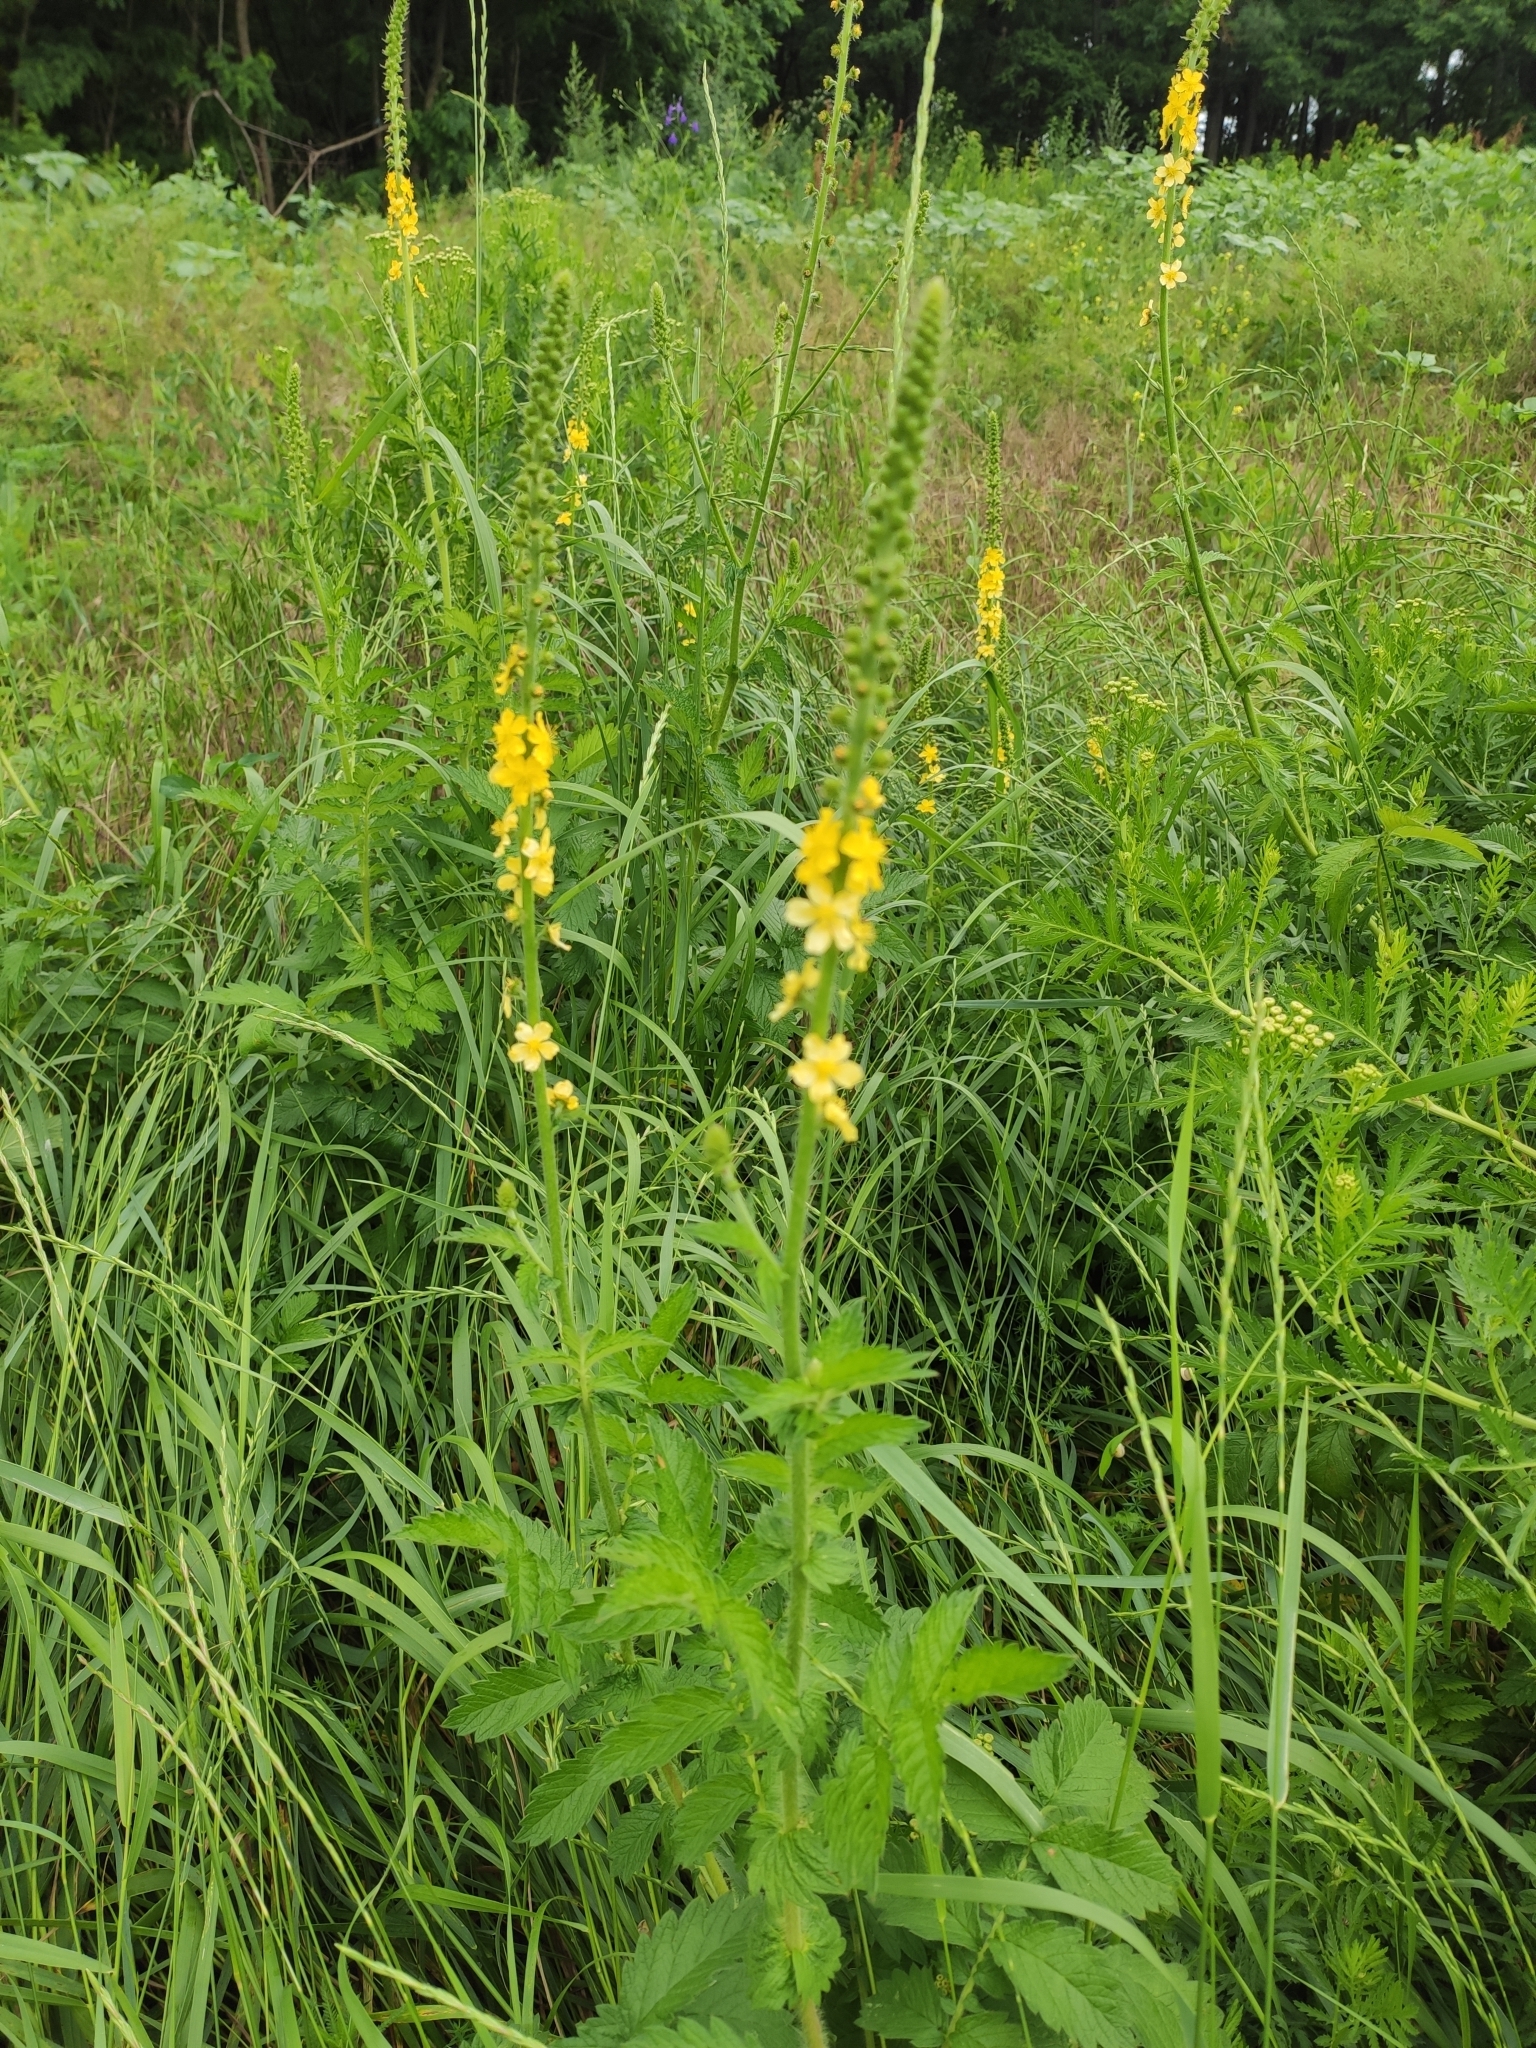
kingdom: Plantae
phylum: Tracheophyta
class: Magnoliopsida
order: Rosales
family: Rosaceae
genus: Agrimonia
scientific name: Agrimonia eupatoria
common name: Agrimony
